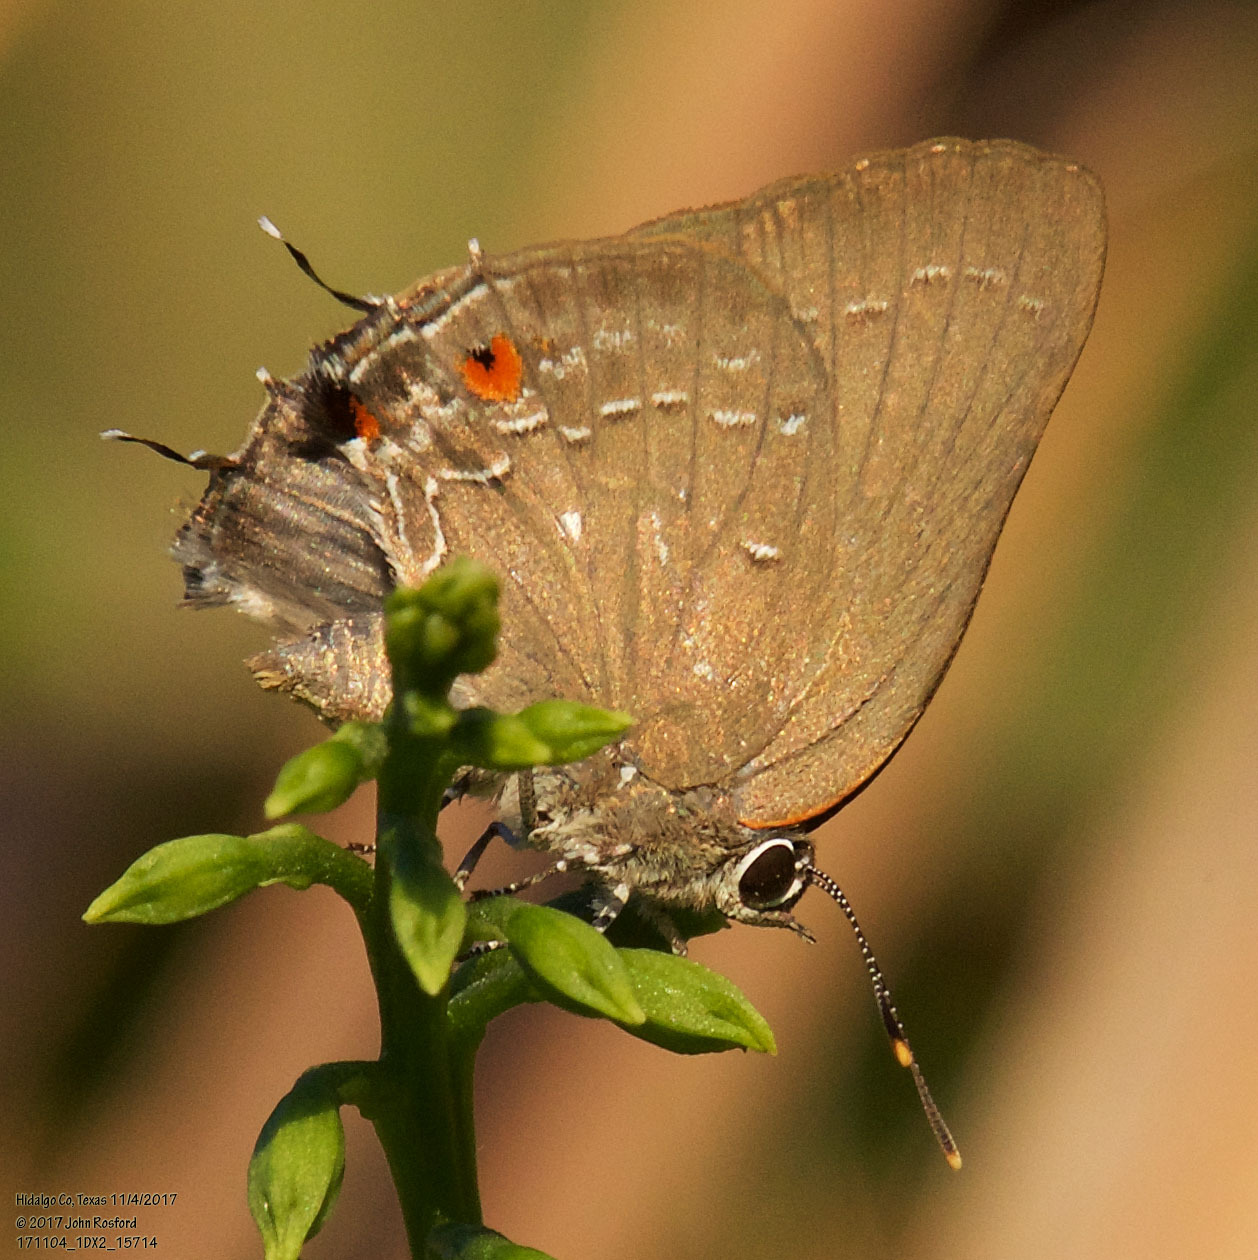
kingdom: Animalia
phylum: Arthropoda
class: Insecta
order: Lepidoptera
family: Lycaenidae
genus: Michaelus
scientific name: Michaelus ira
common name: Shadowed hairstreak
